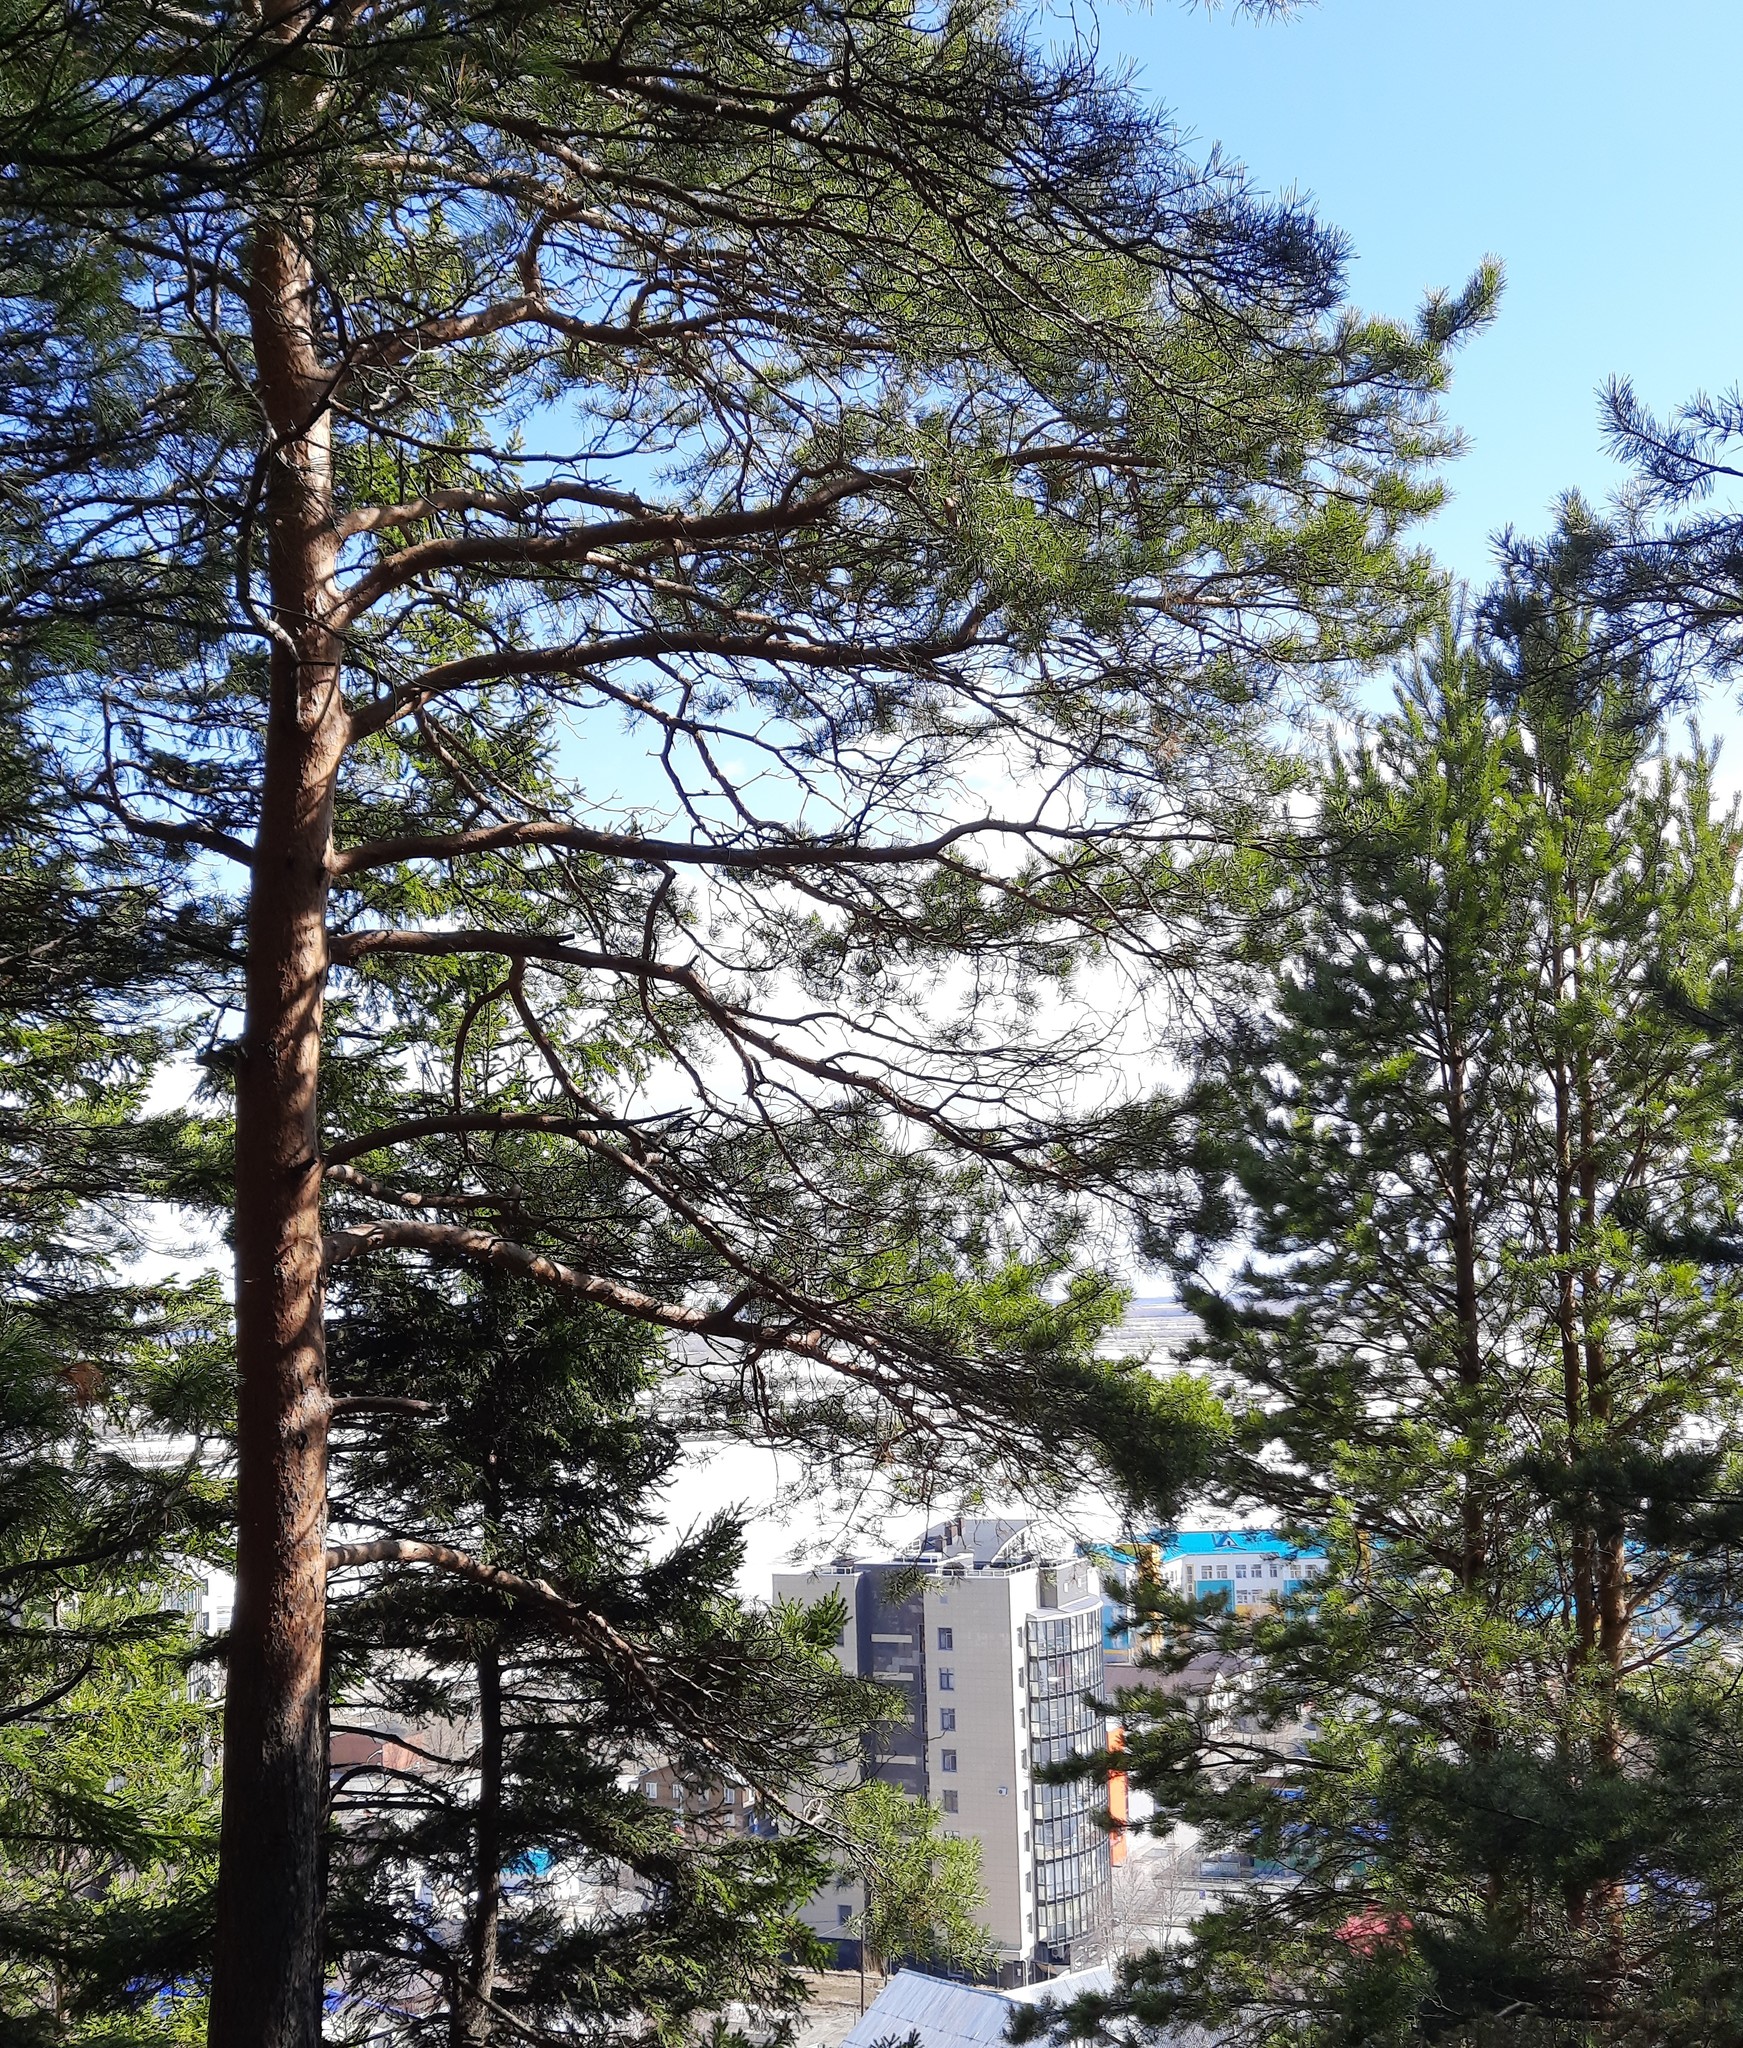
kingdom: Plantae
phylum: Tracheophyta
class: Pinopsida
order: Pinales
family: Pinaceae
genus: Pinus
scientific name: Pinus sylvestris
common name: Scots pine
